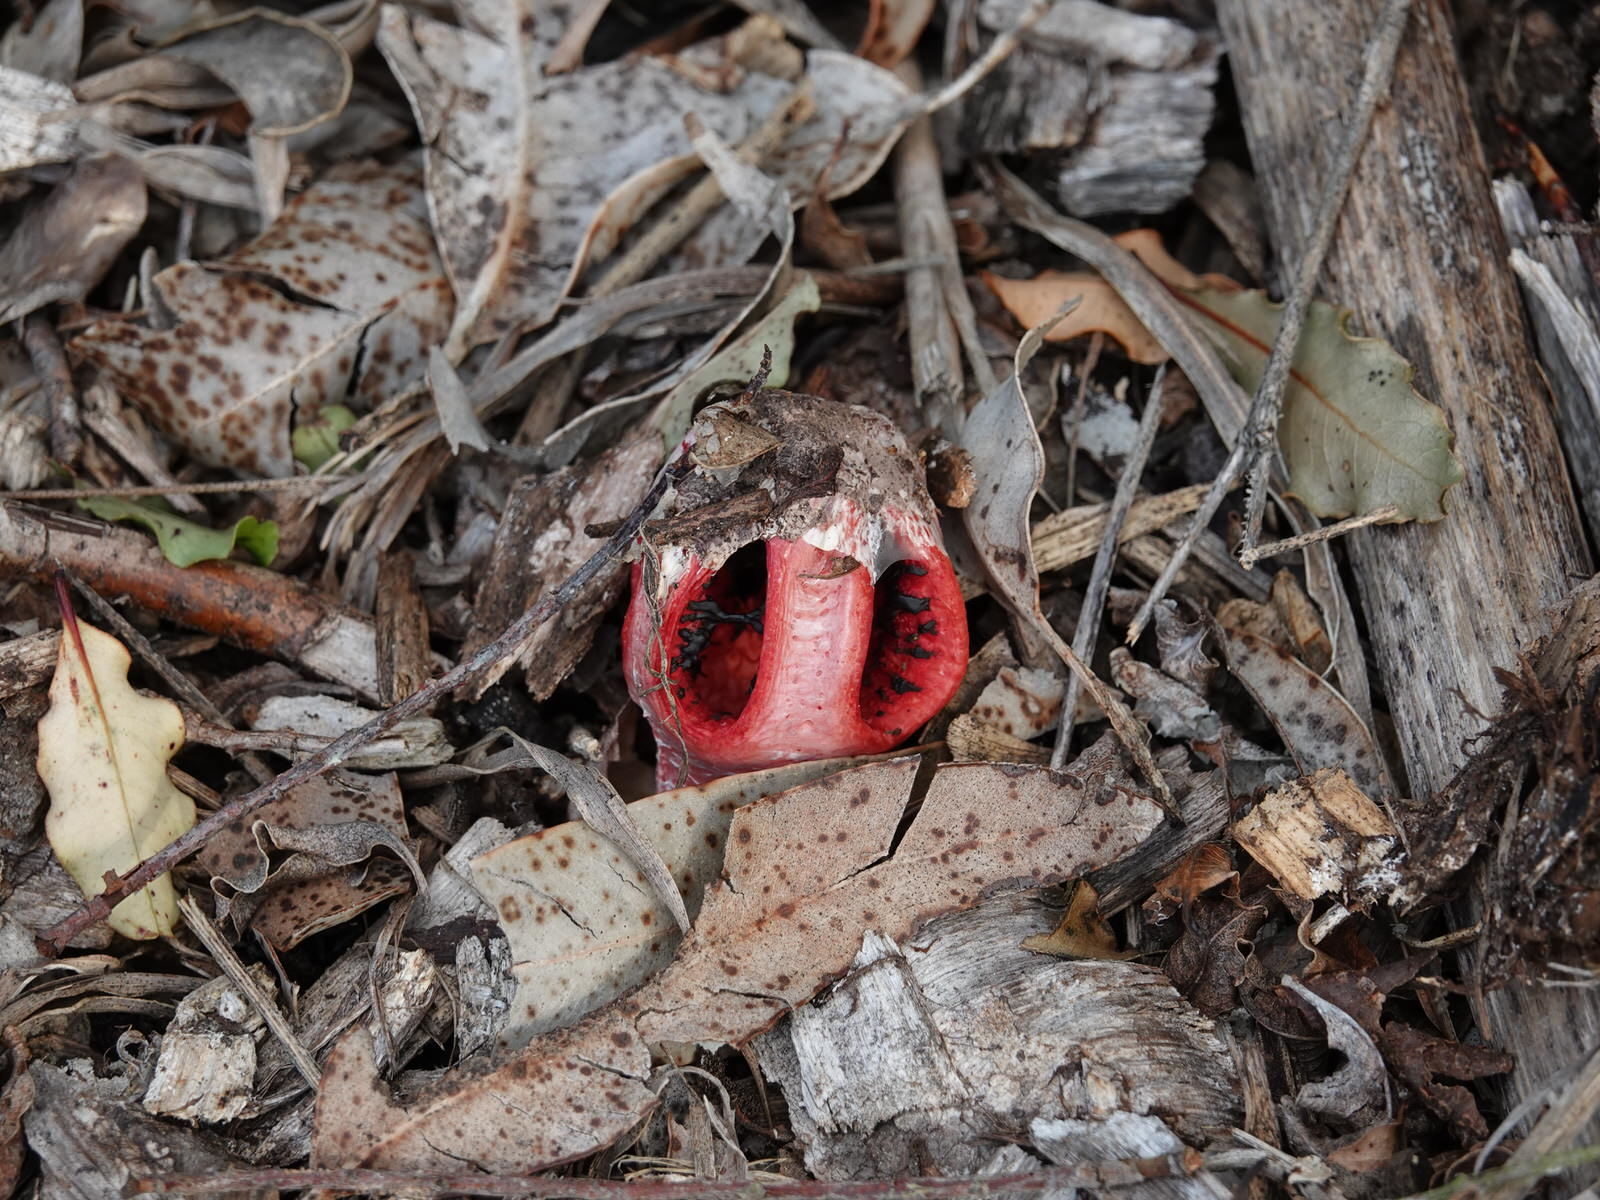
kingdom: Fungi
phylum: Basidiomycota
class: Agaricomycetes
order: Phallales
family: Phallaceae
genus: Clathrus
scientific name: Clathrus archeri
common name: Devil's fingers
